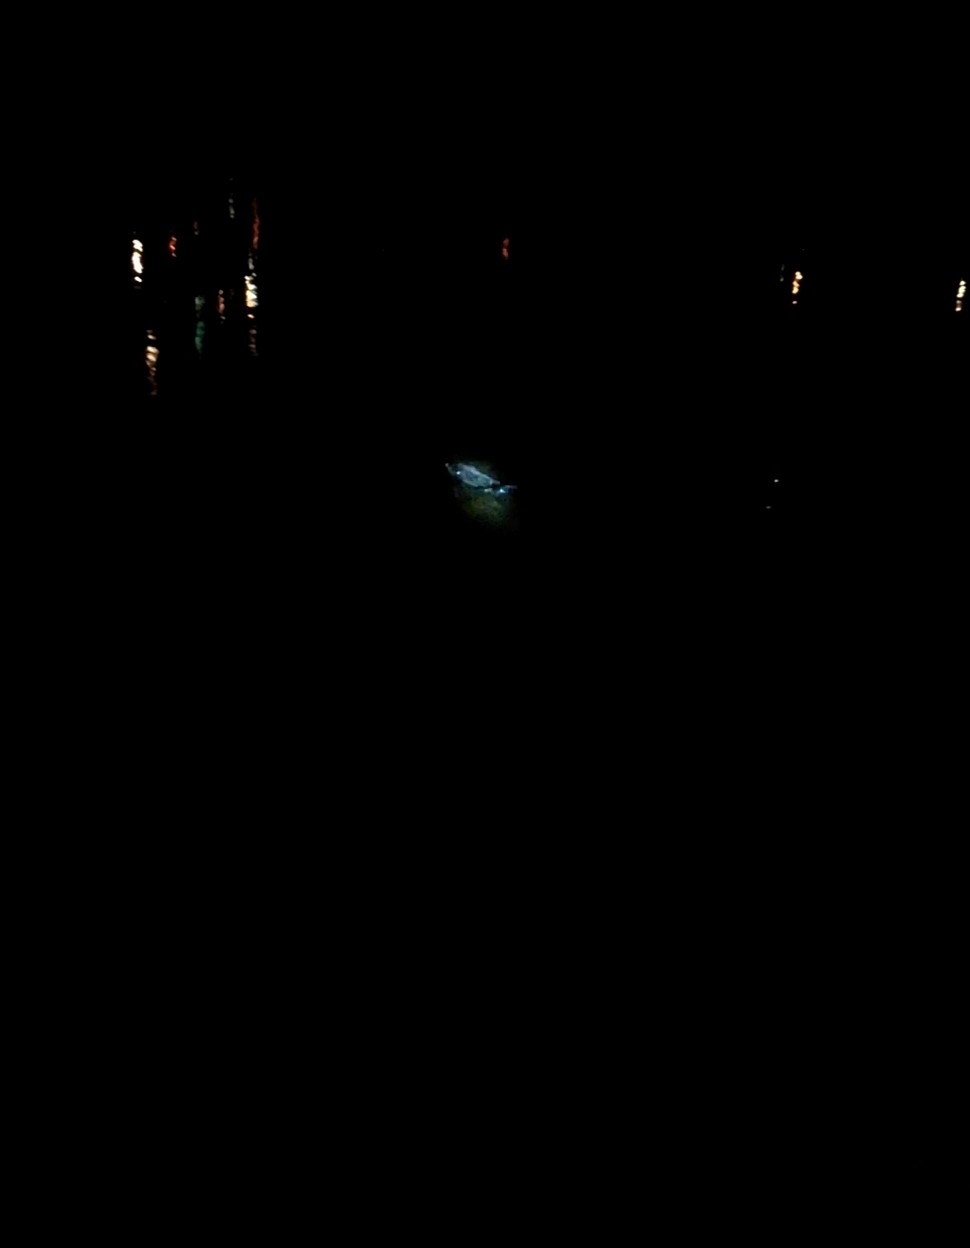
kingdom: Animalia
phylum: Chordata
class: Mammalia
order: Rodentia
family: Castoridae
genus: Castor
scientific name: Castor fiber
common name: Eurasian beaver
